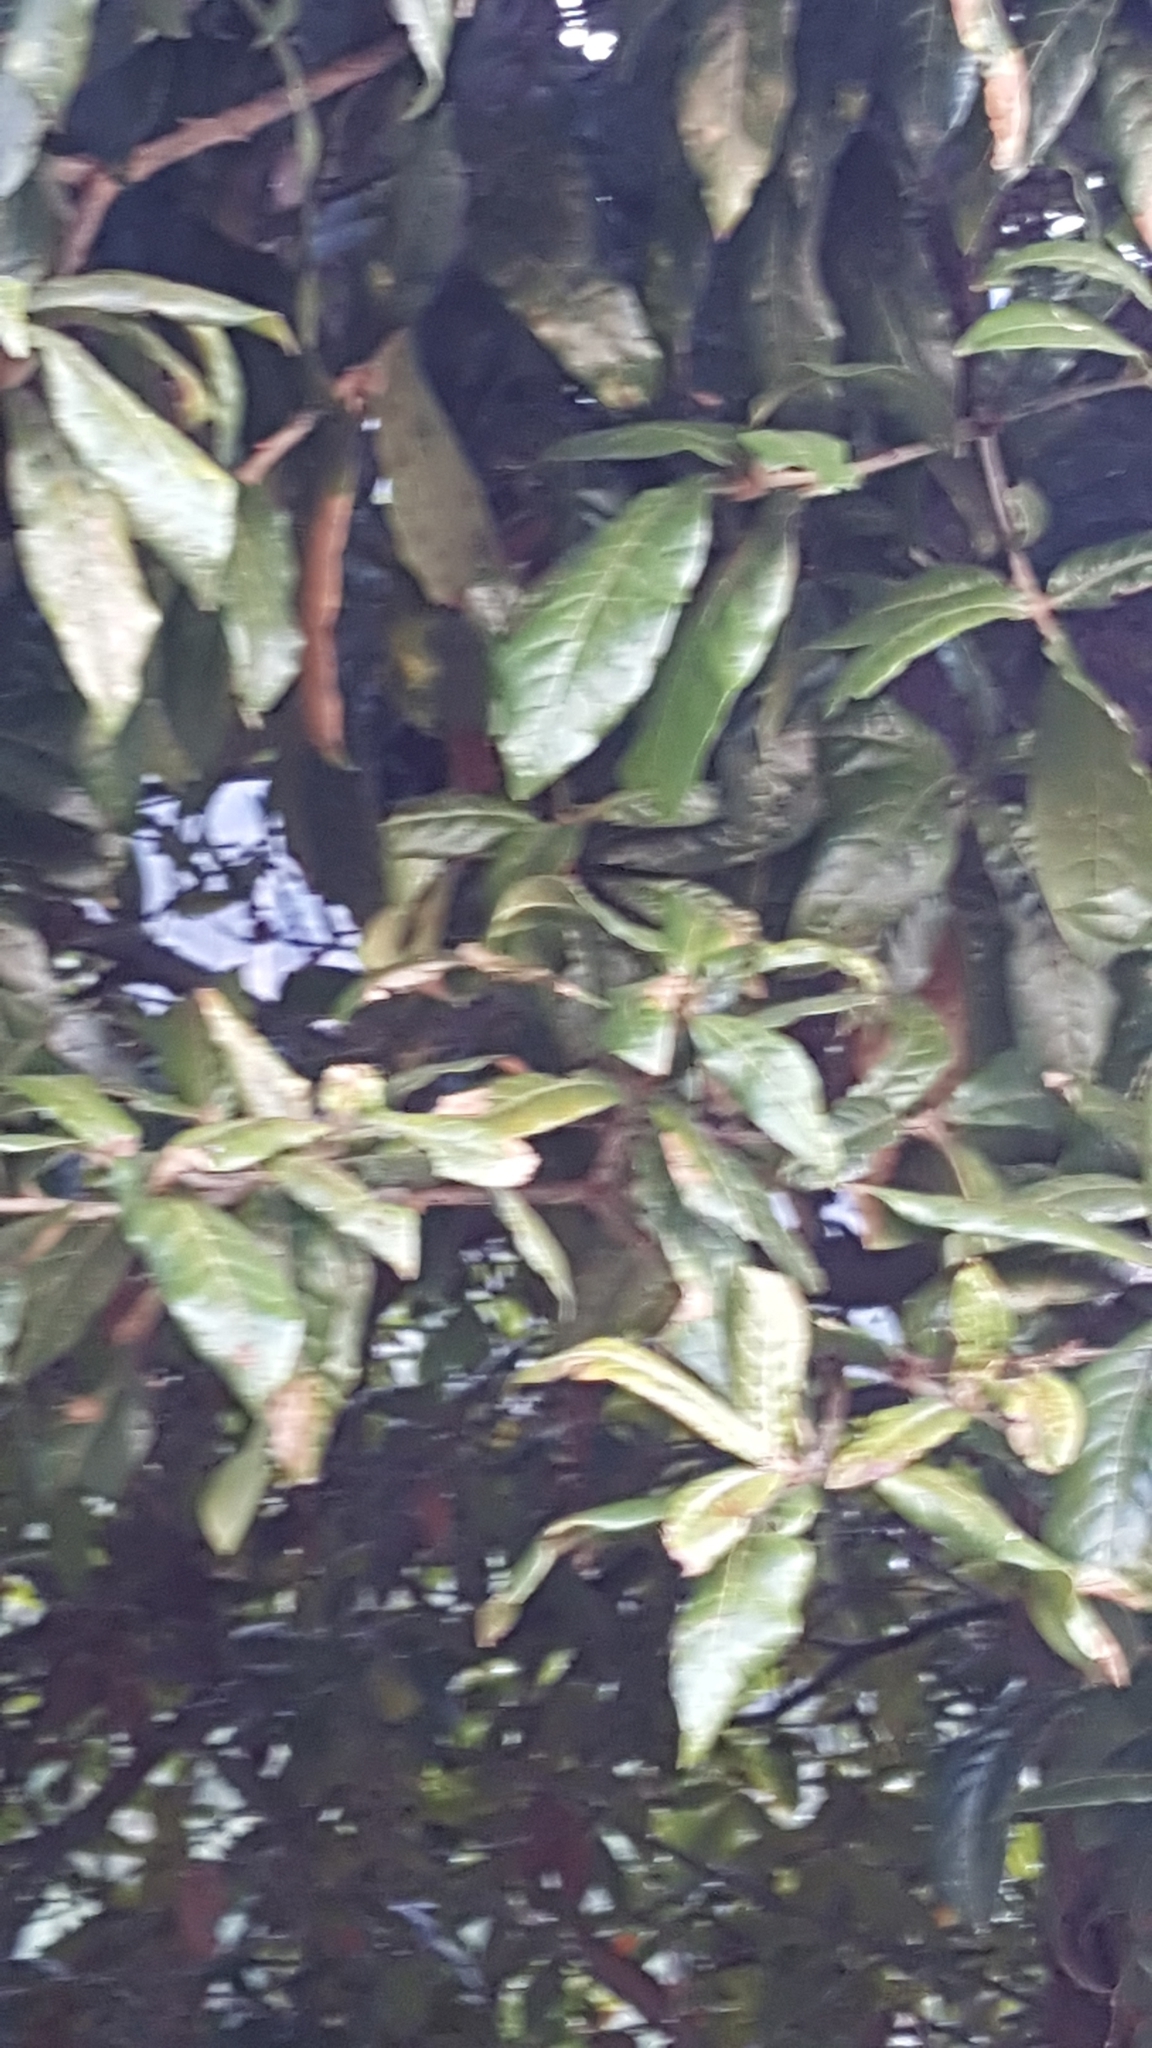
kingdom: Plantae
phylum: Tracheophyta
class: Magnoliopsida
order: Fagales
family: Fagaceae
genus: Quercus
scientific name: Quercus humboldtii
